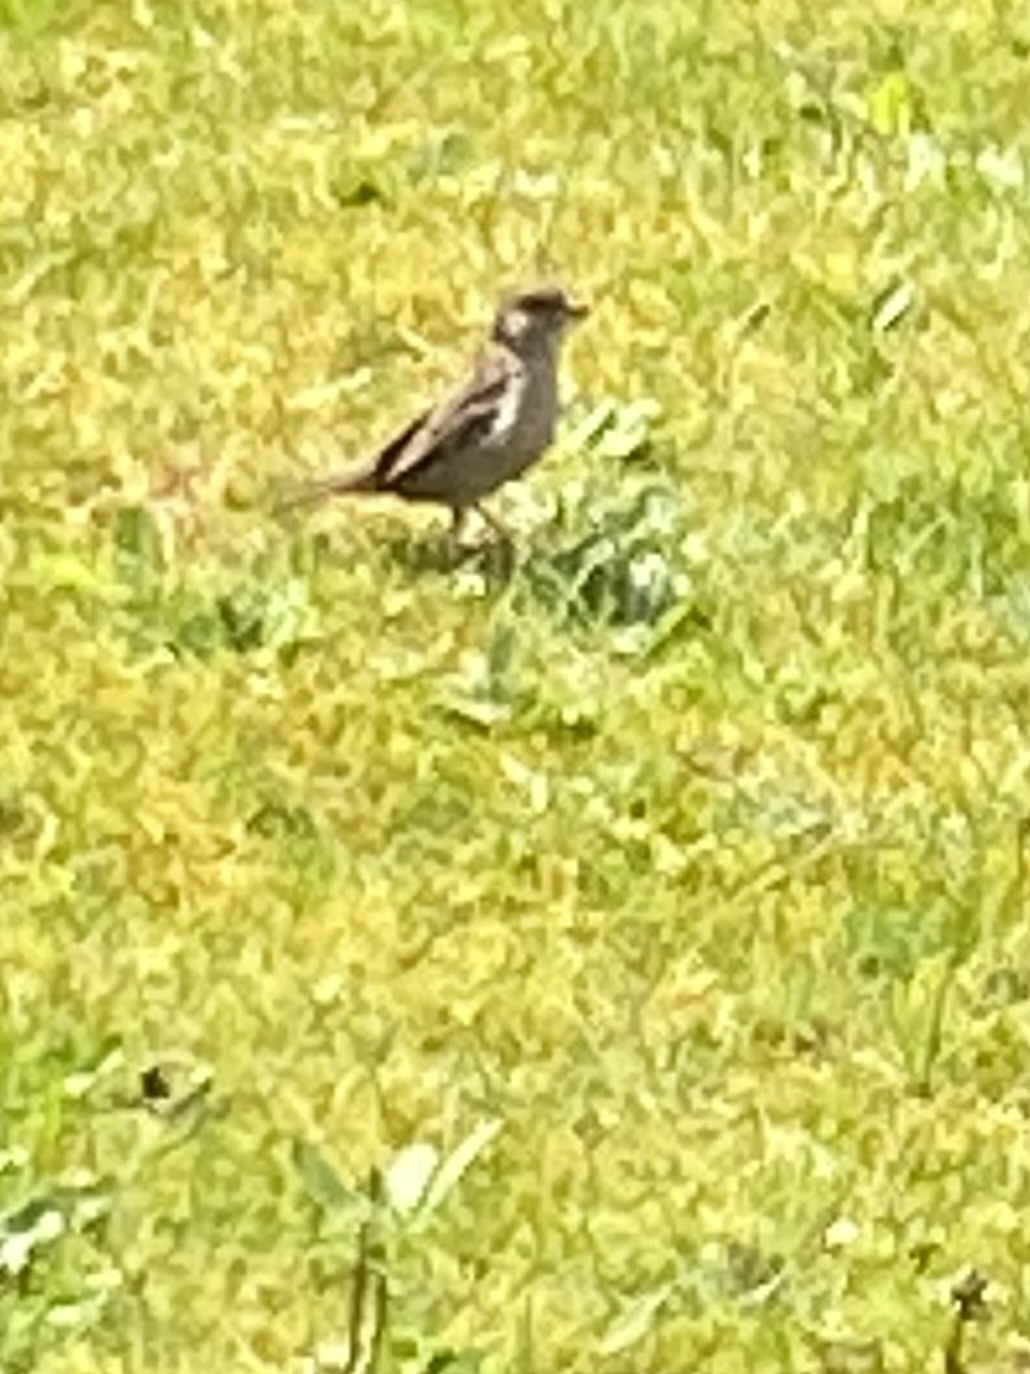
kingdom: Animalia
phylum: Chordata
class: Aves
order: Passeriformes
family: Passeridae
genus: Passer
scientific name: Passer domesticus
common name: House sparrow
